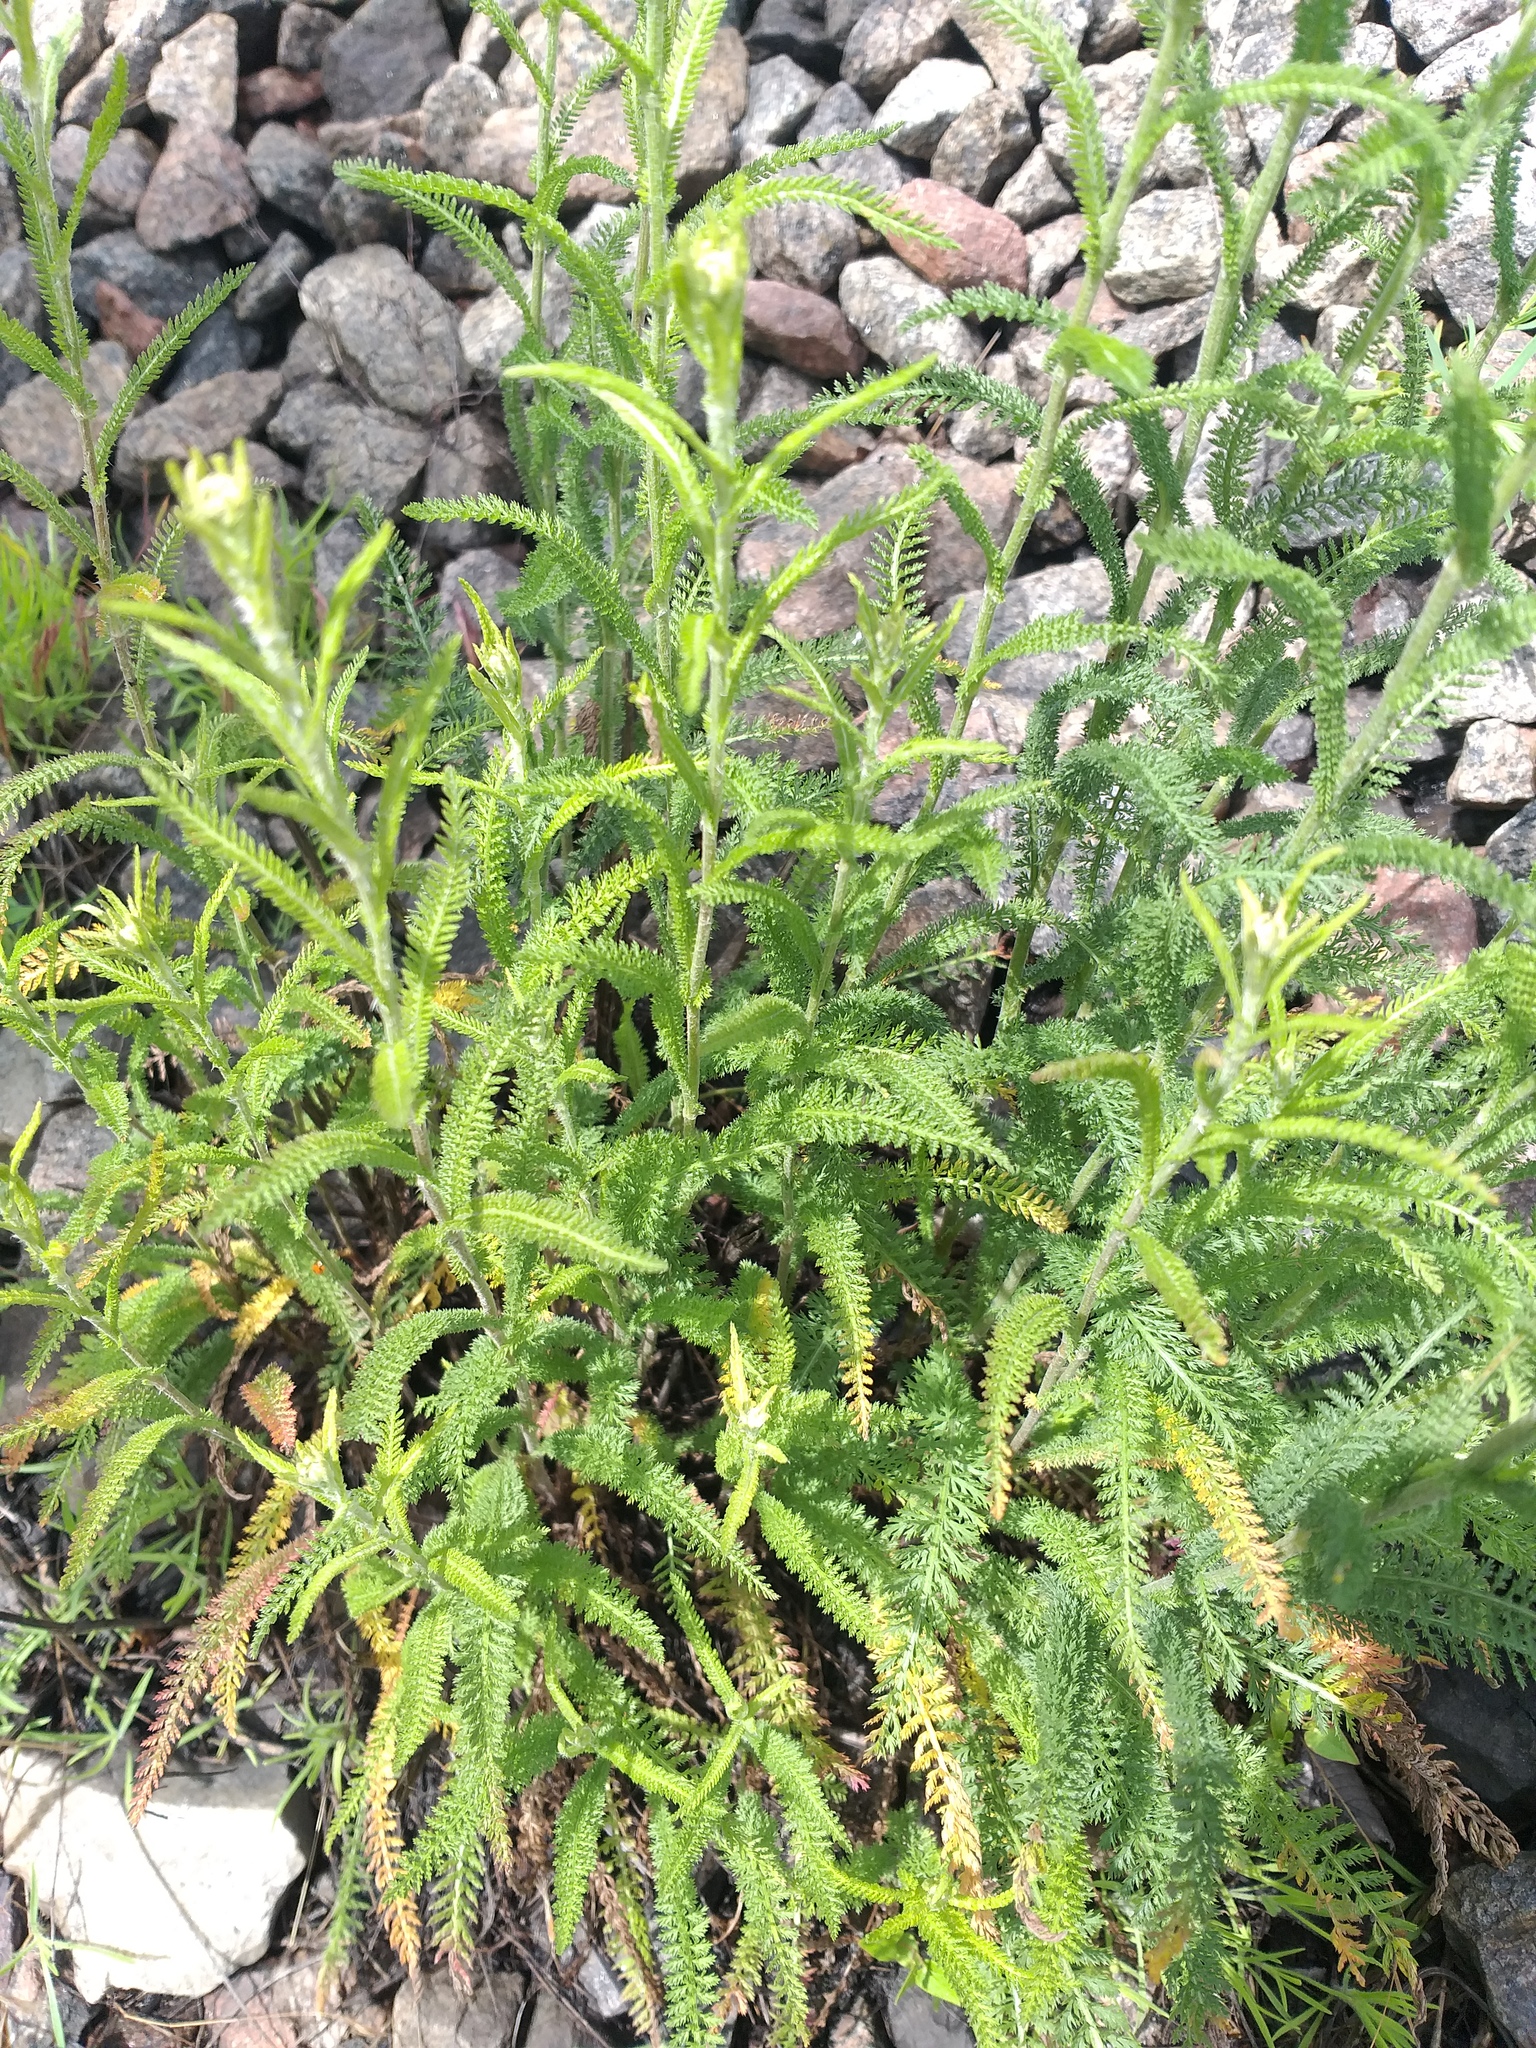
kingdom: Plantae
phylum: Tracheophyta
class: Magnoliopsida
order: Asterales
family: Asteraceae
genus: Achillea
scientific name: Achillea setacea
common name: Bristly yarrow
